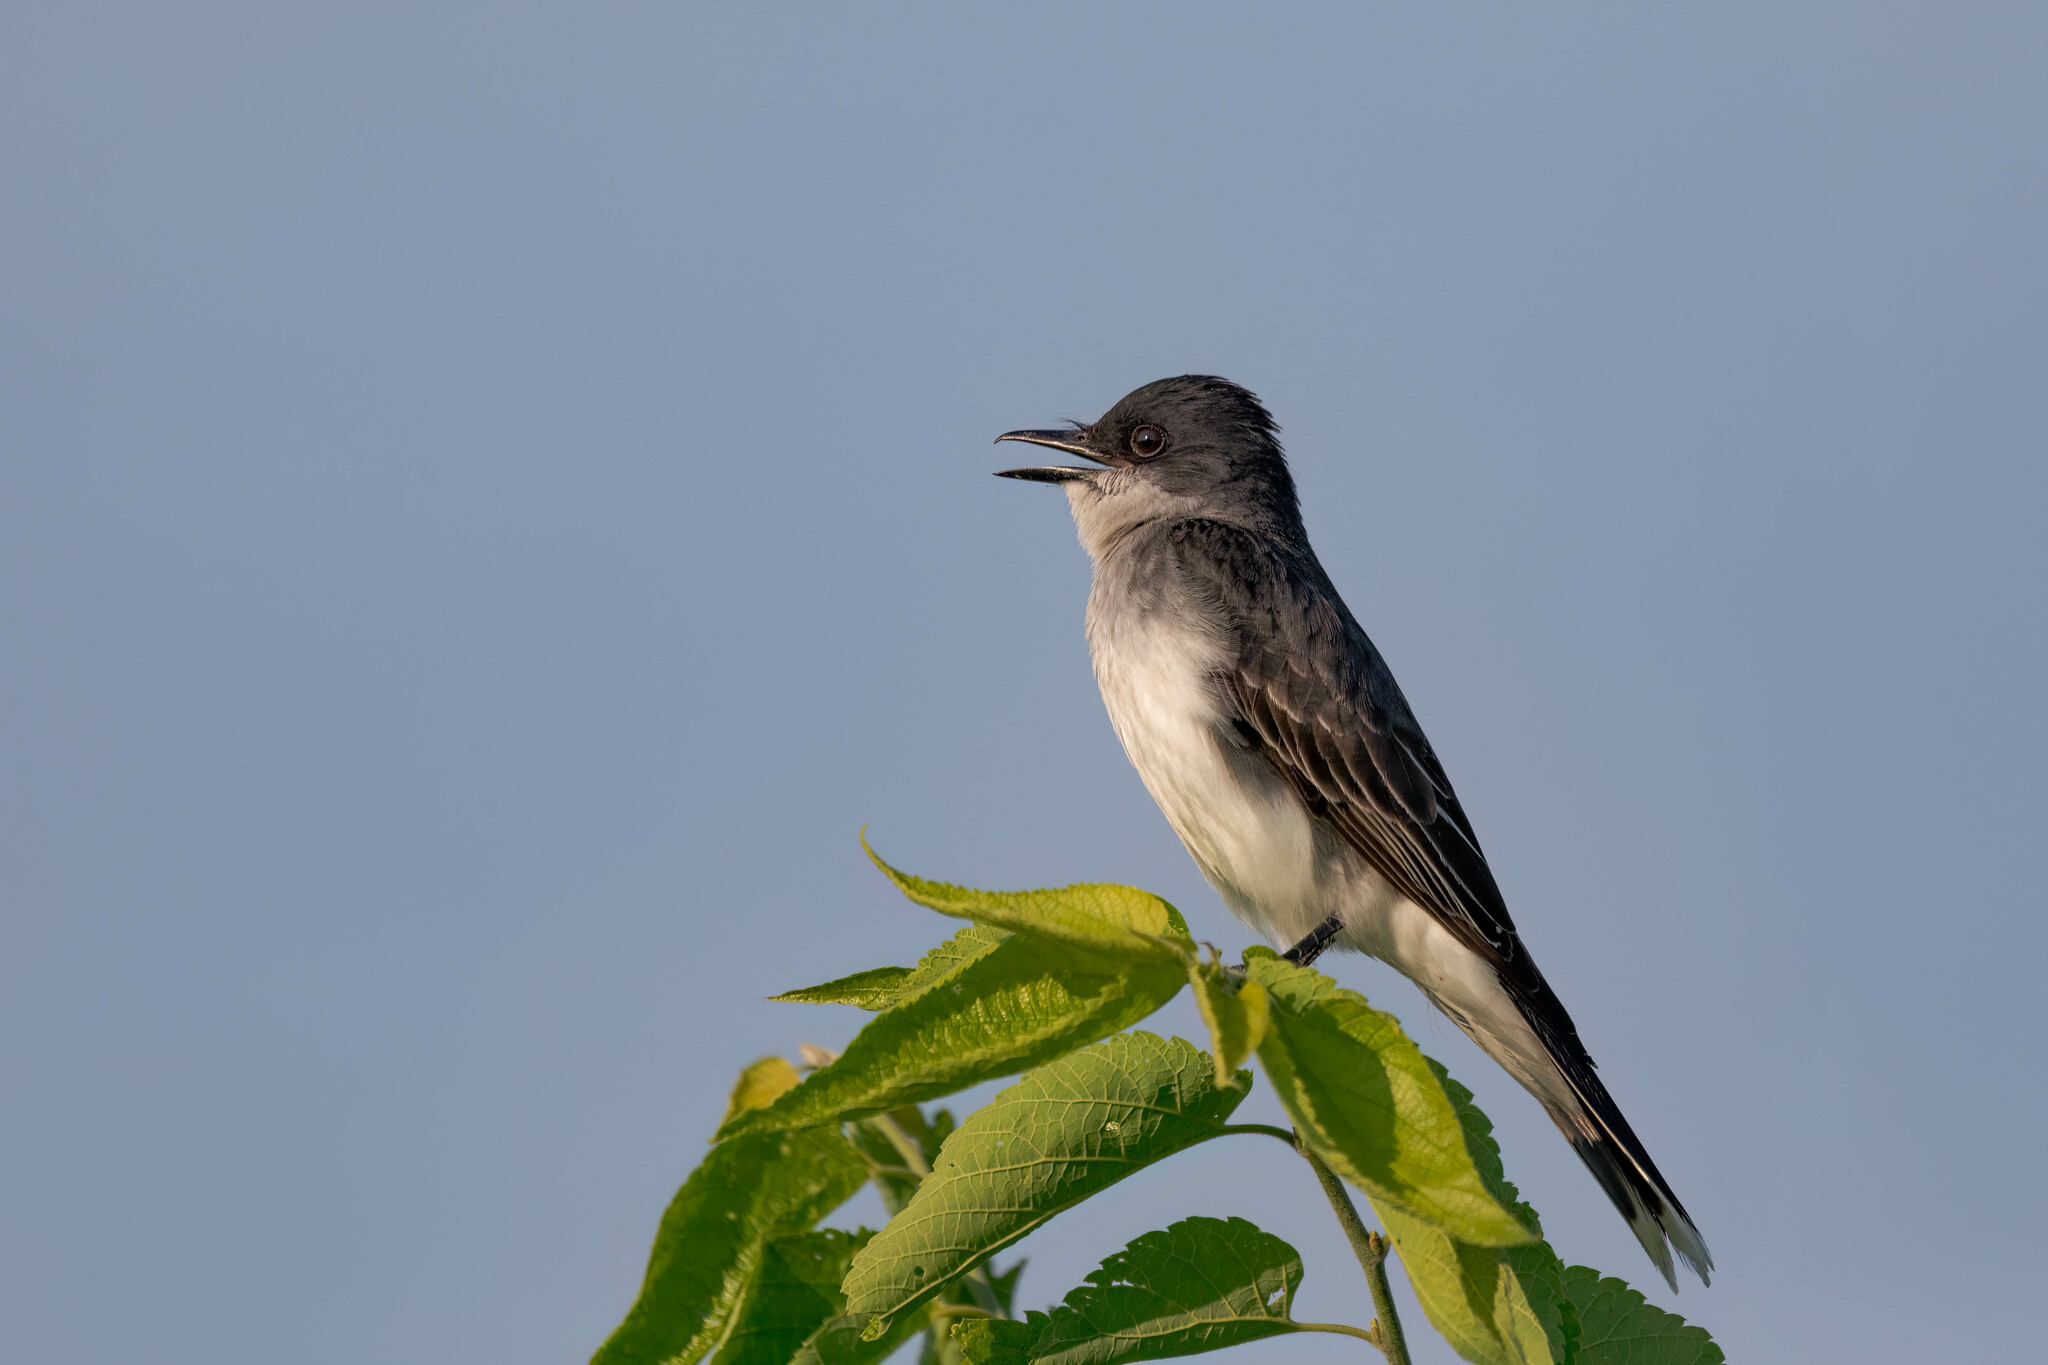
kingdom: Animalia
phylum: Chordata
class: Aves
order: Passeriformes
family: Tyrannidae
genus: Tyrannus
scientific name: Tyrannus tyrannus
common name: Eastern kingbird
